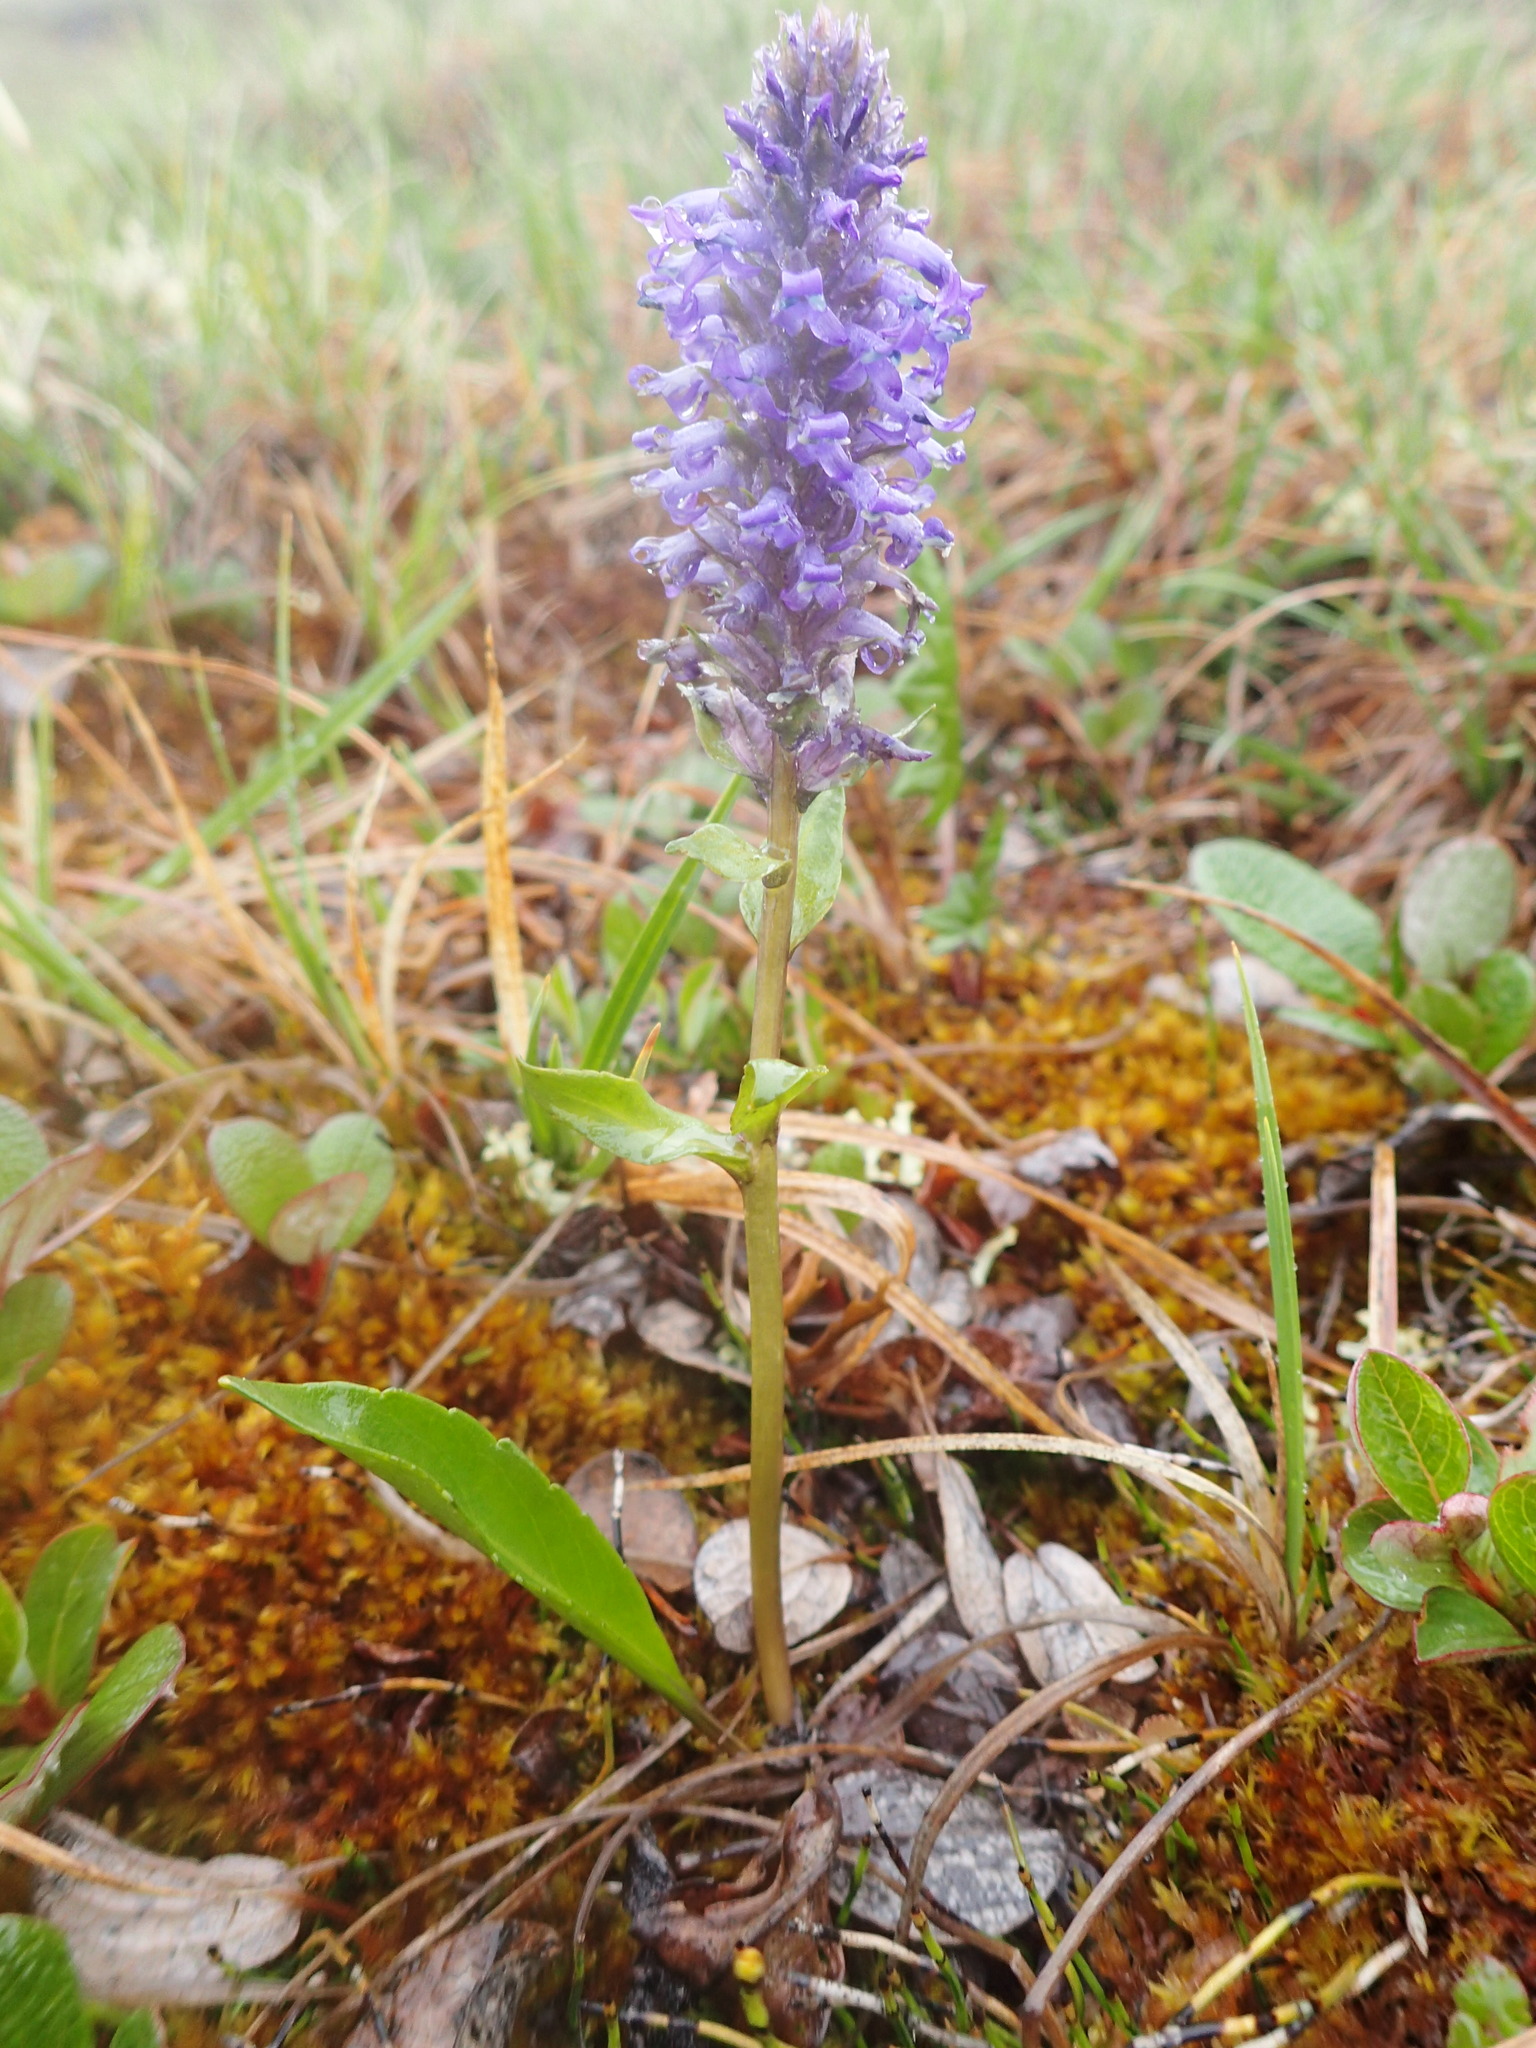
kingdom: Plantae
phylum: Tracheophyta
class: Magnoliopsida
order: Lamiales
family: Plantaginaceae
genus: Lagotis
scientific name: Lagotis glauca
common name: Glaucous weaselsnout
